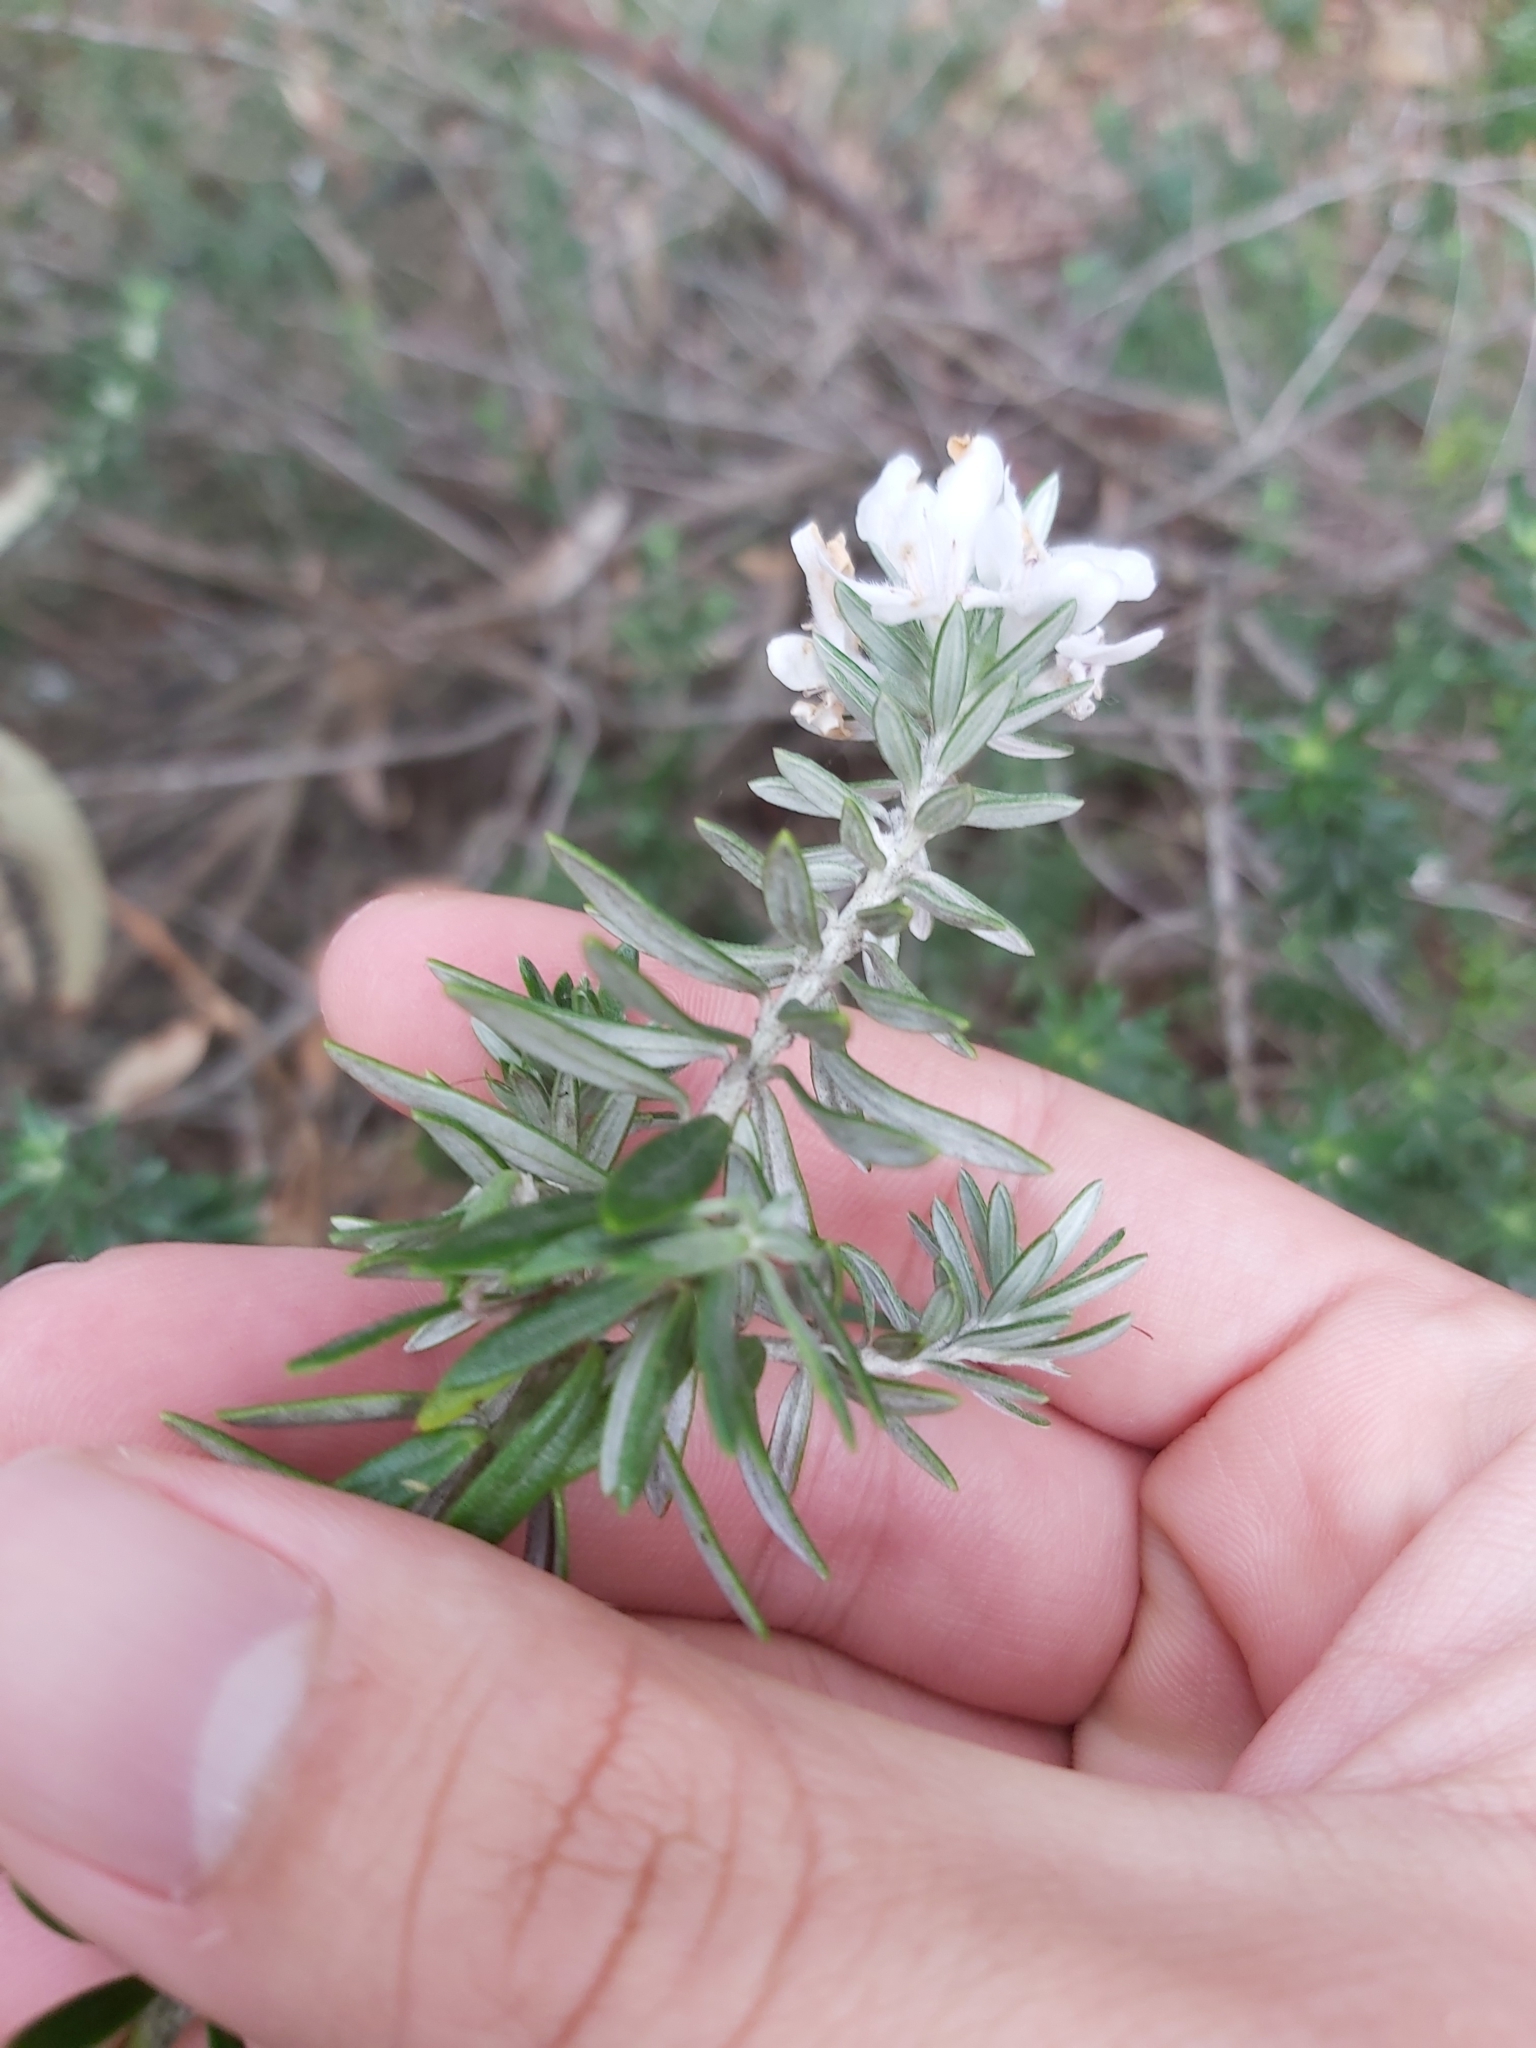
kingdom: Plantae
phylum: Tracheophyta
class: Magnoliopsida
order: Lamiales
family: Lamiaceae
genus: Westringia
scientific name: Westringia fruticosa
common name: Coastal-rosemary
